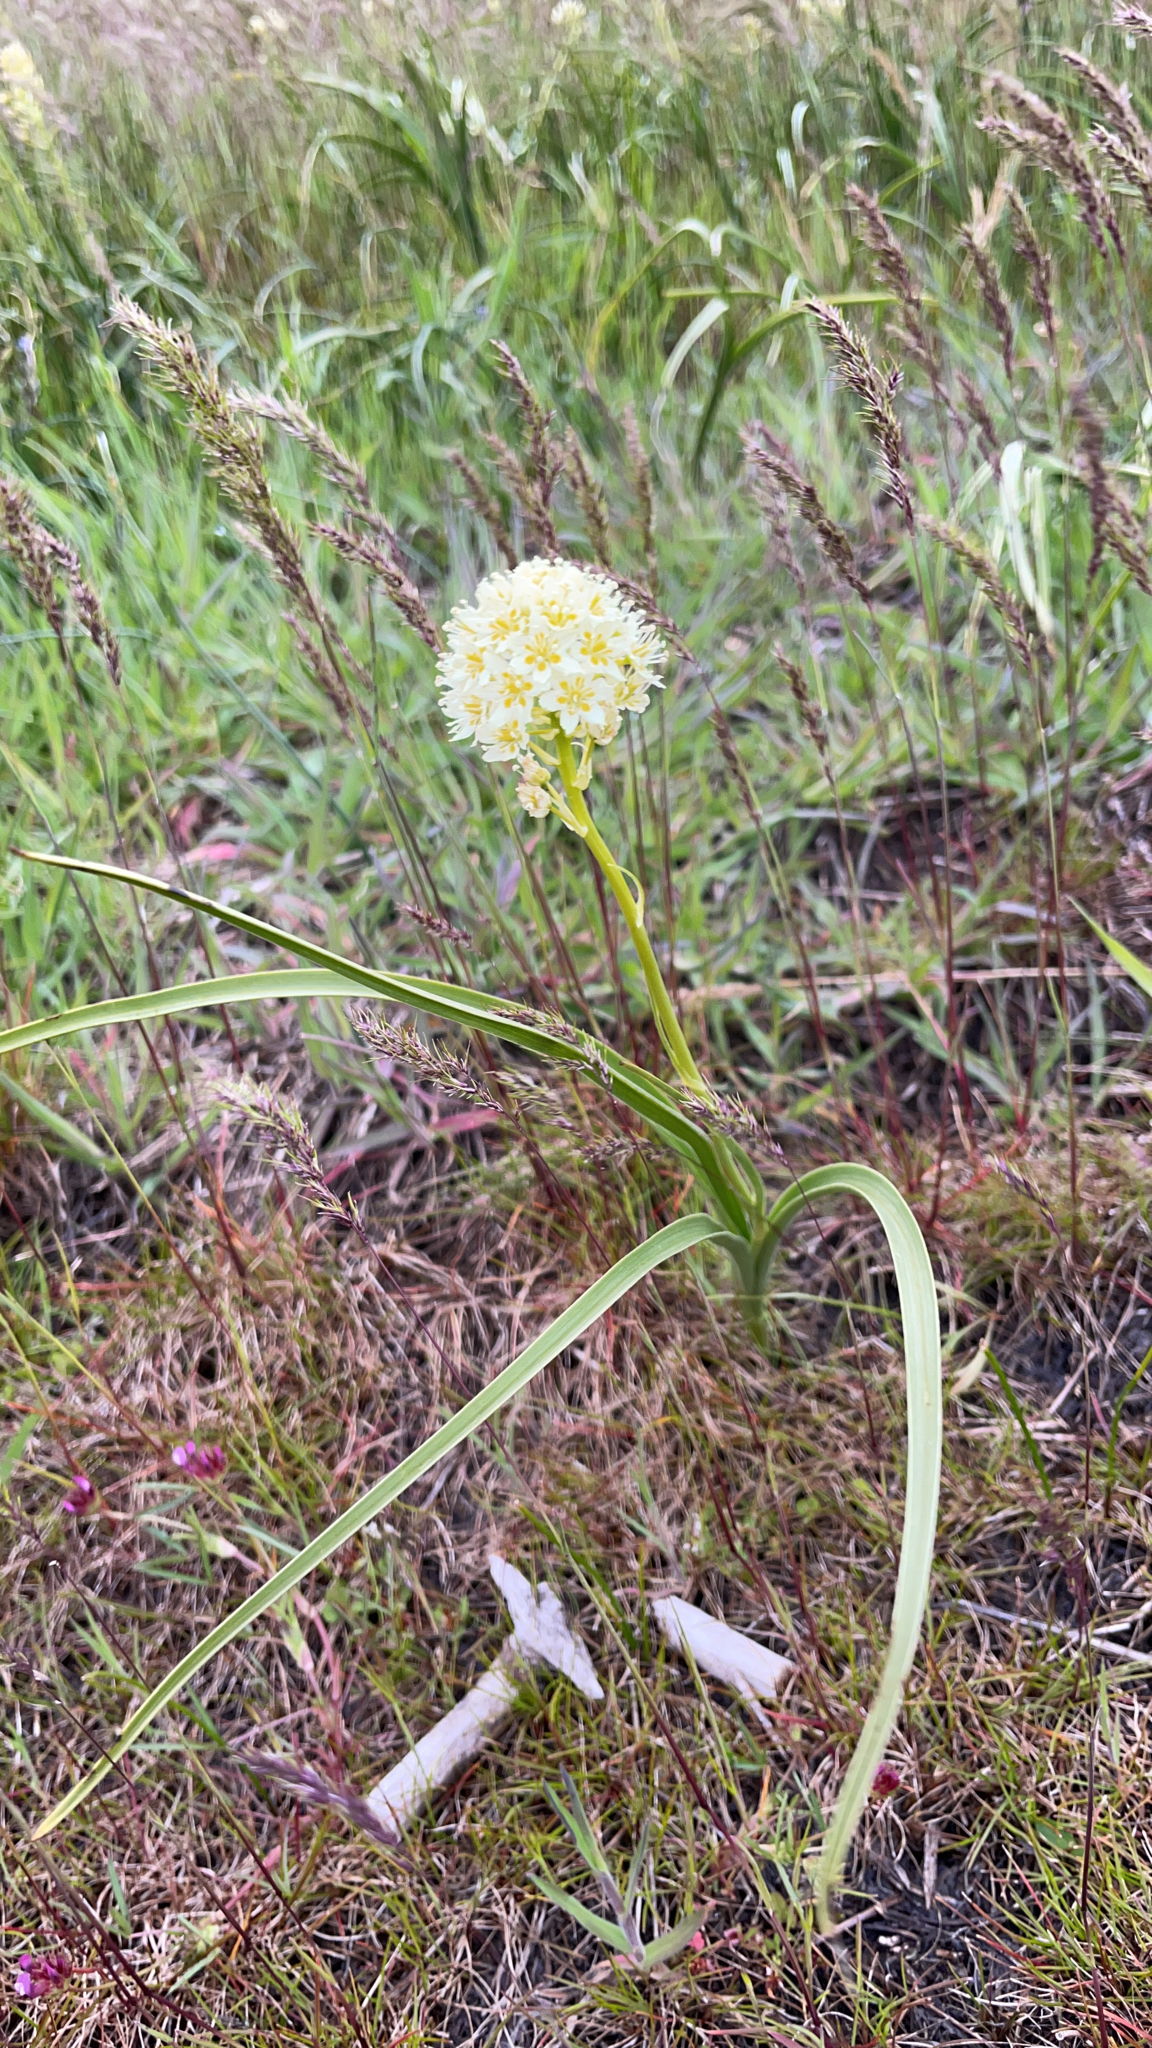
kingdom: Plantae
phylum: Tracheophyta
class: Liliopsida
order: Liliales
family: Melanthiaceae
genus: Toxicoscordion
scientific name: Toxicoscordion venenosum
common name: Meadow death camas
